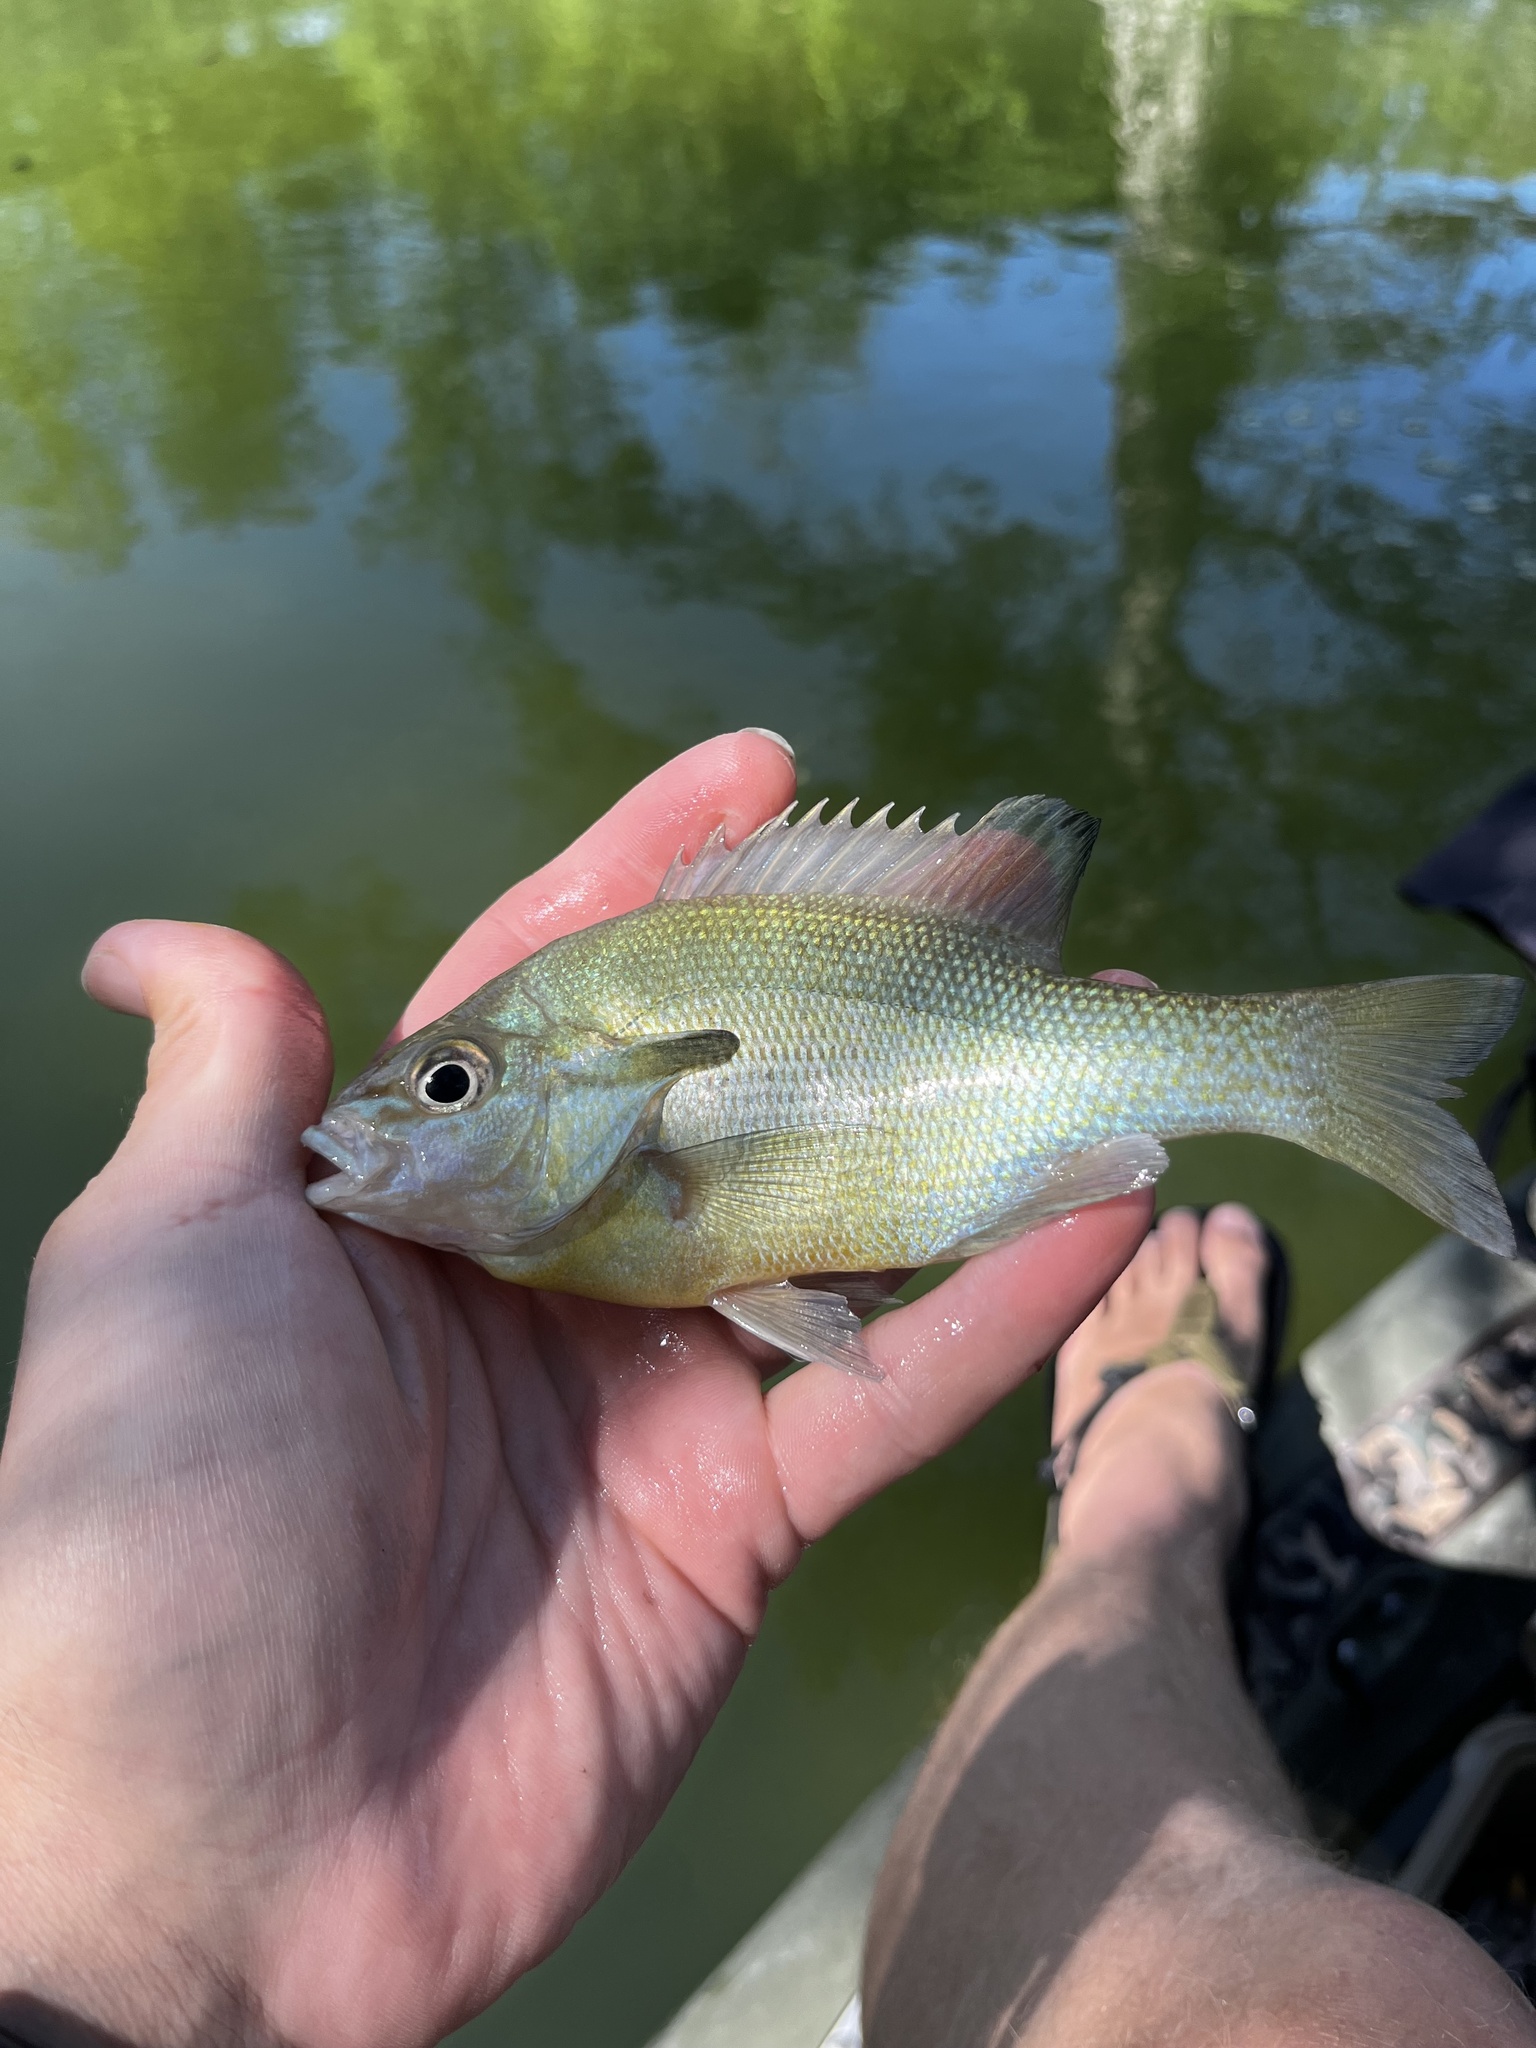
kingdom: Animalia
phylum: Chordata
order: Perciformes
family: Centrarchidae
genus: Lepomis
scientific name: Lepomis auritus
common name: Redbreast sunfish
